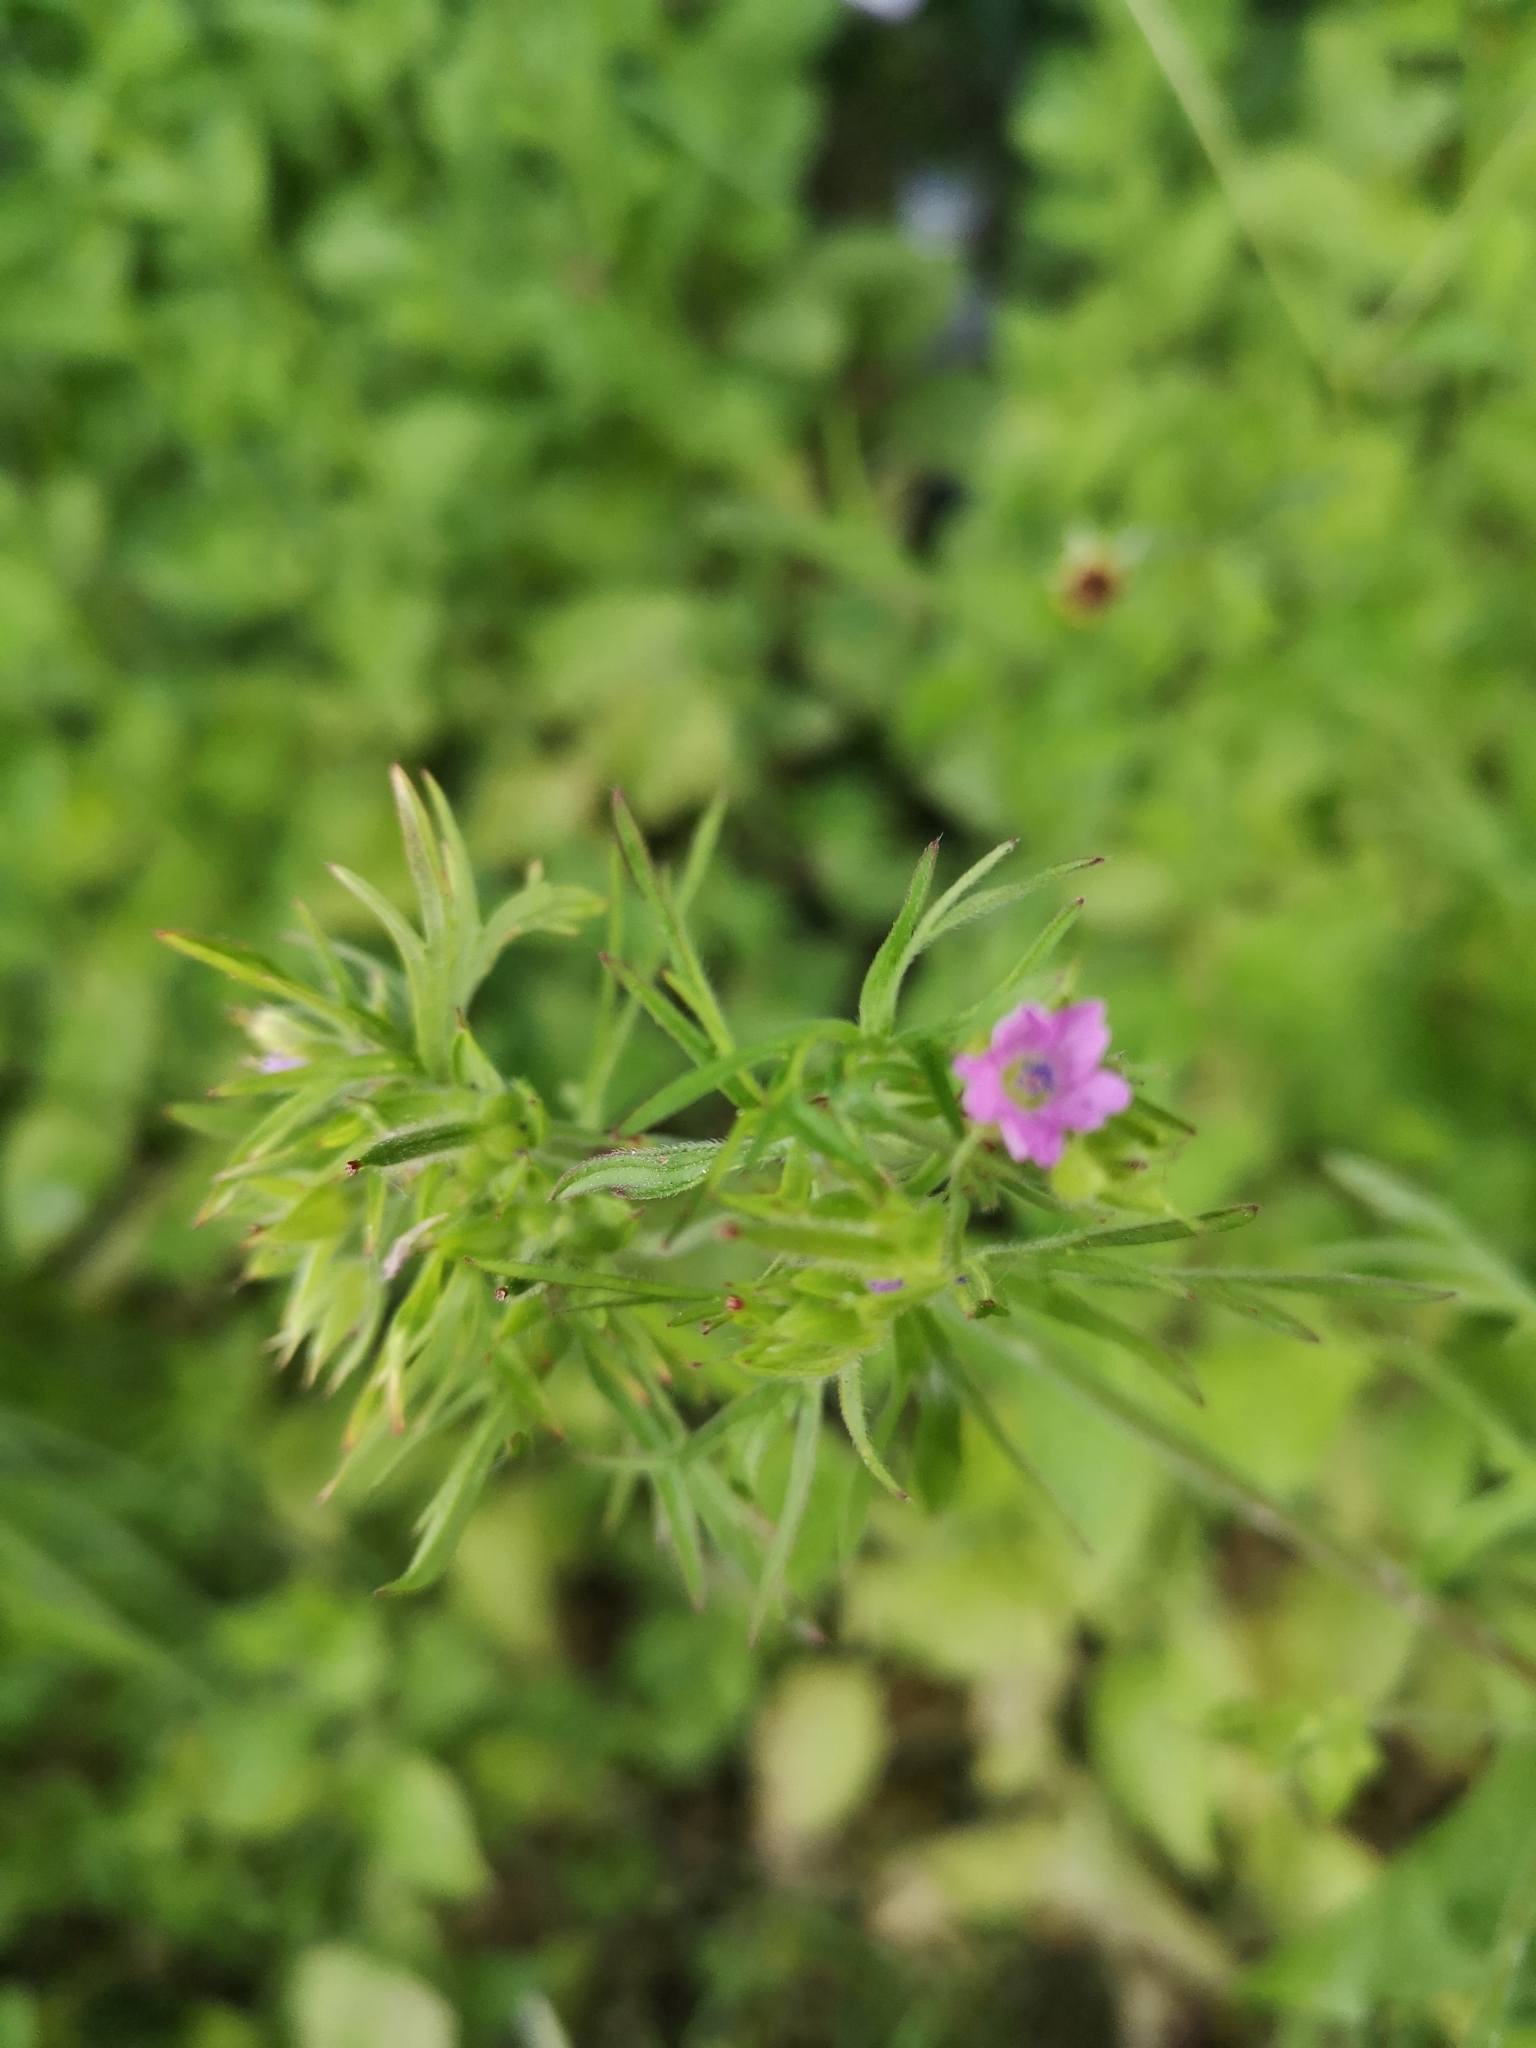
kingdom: Plantae
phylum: Tracheophyta
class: Magnoliopsida
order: Geraniales
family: Geraniaceae
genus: Geranium
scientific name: Geranium dissectum
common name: Cut-leaved crane's-bill
